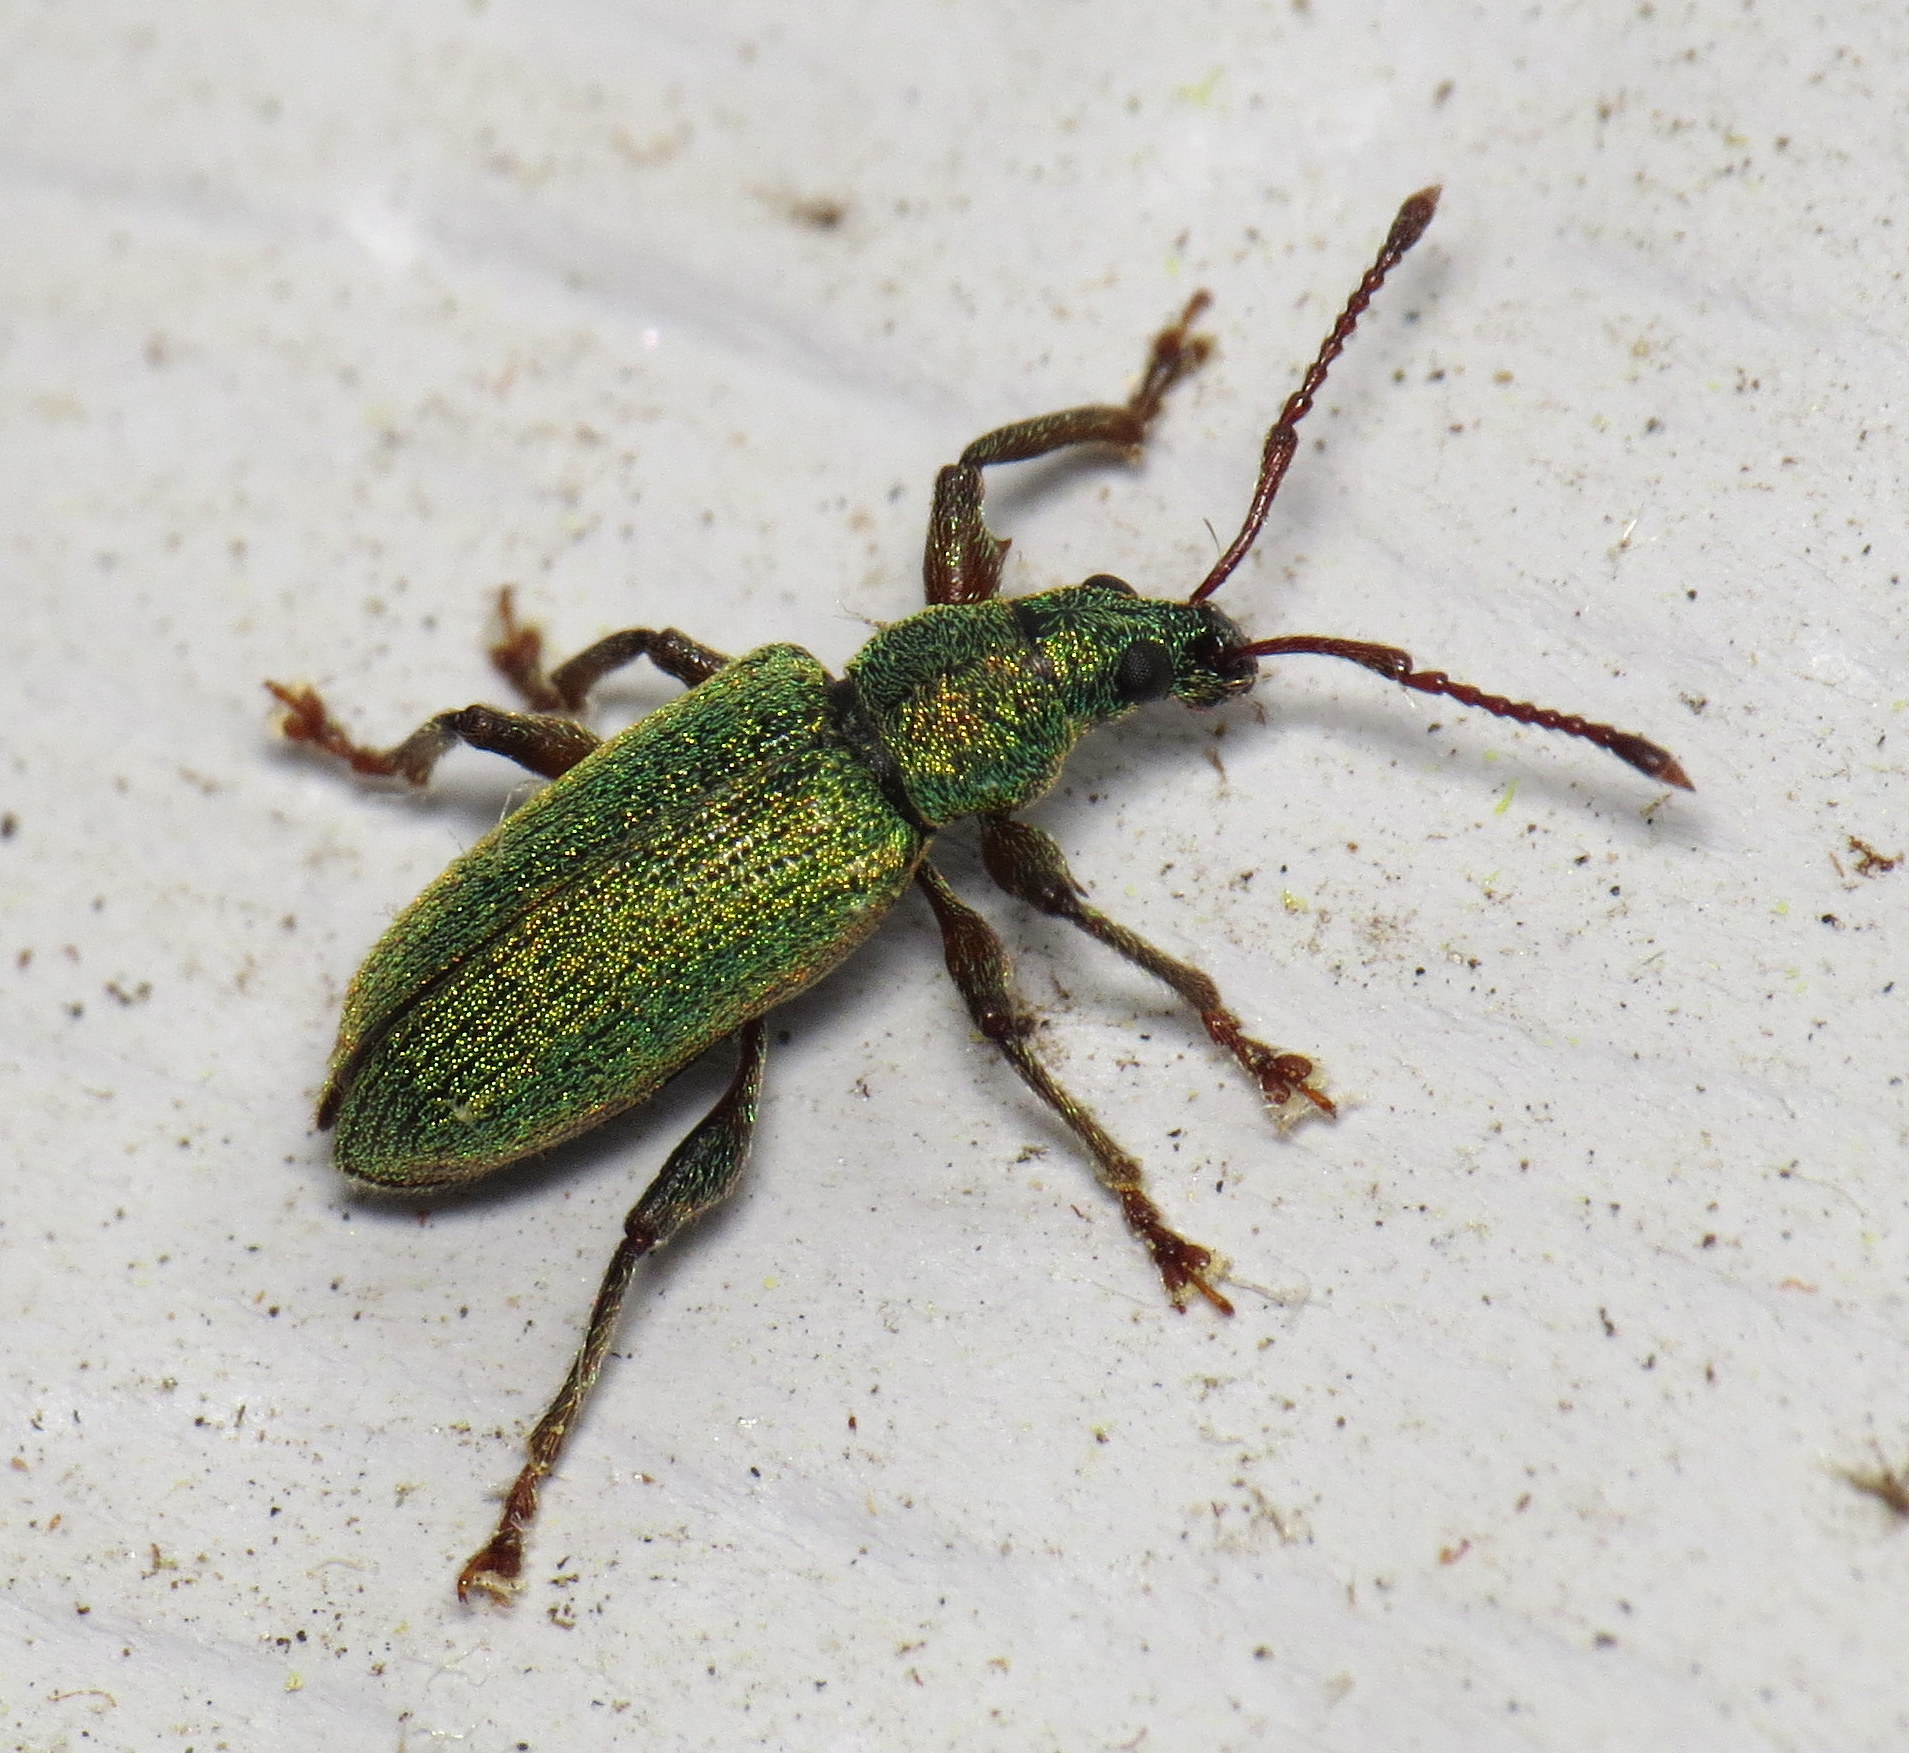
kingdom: Animalia
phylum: Arthropoda
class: Insecta
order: Coleoptera
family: Curculionidae
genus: Parascythopus
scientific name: Parascythopus intrusus
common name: Weevil
